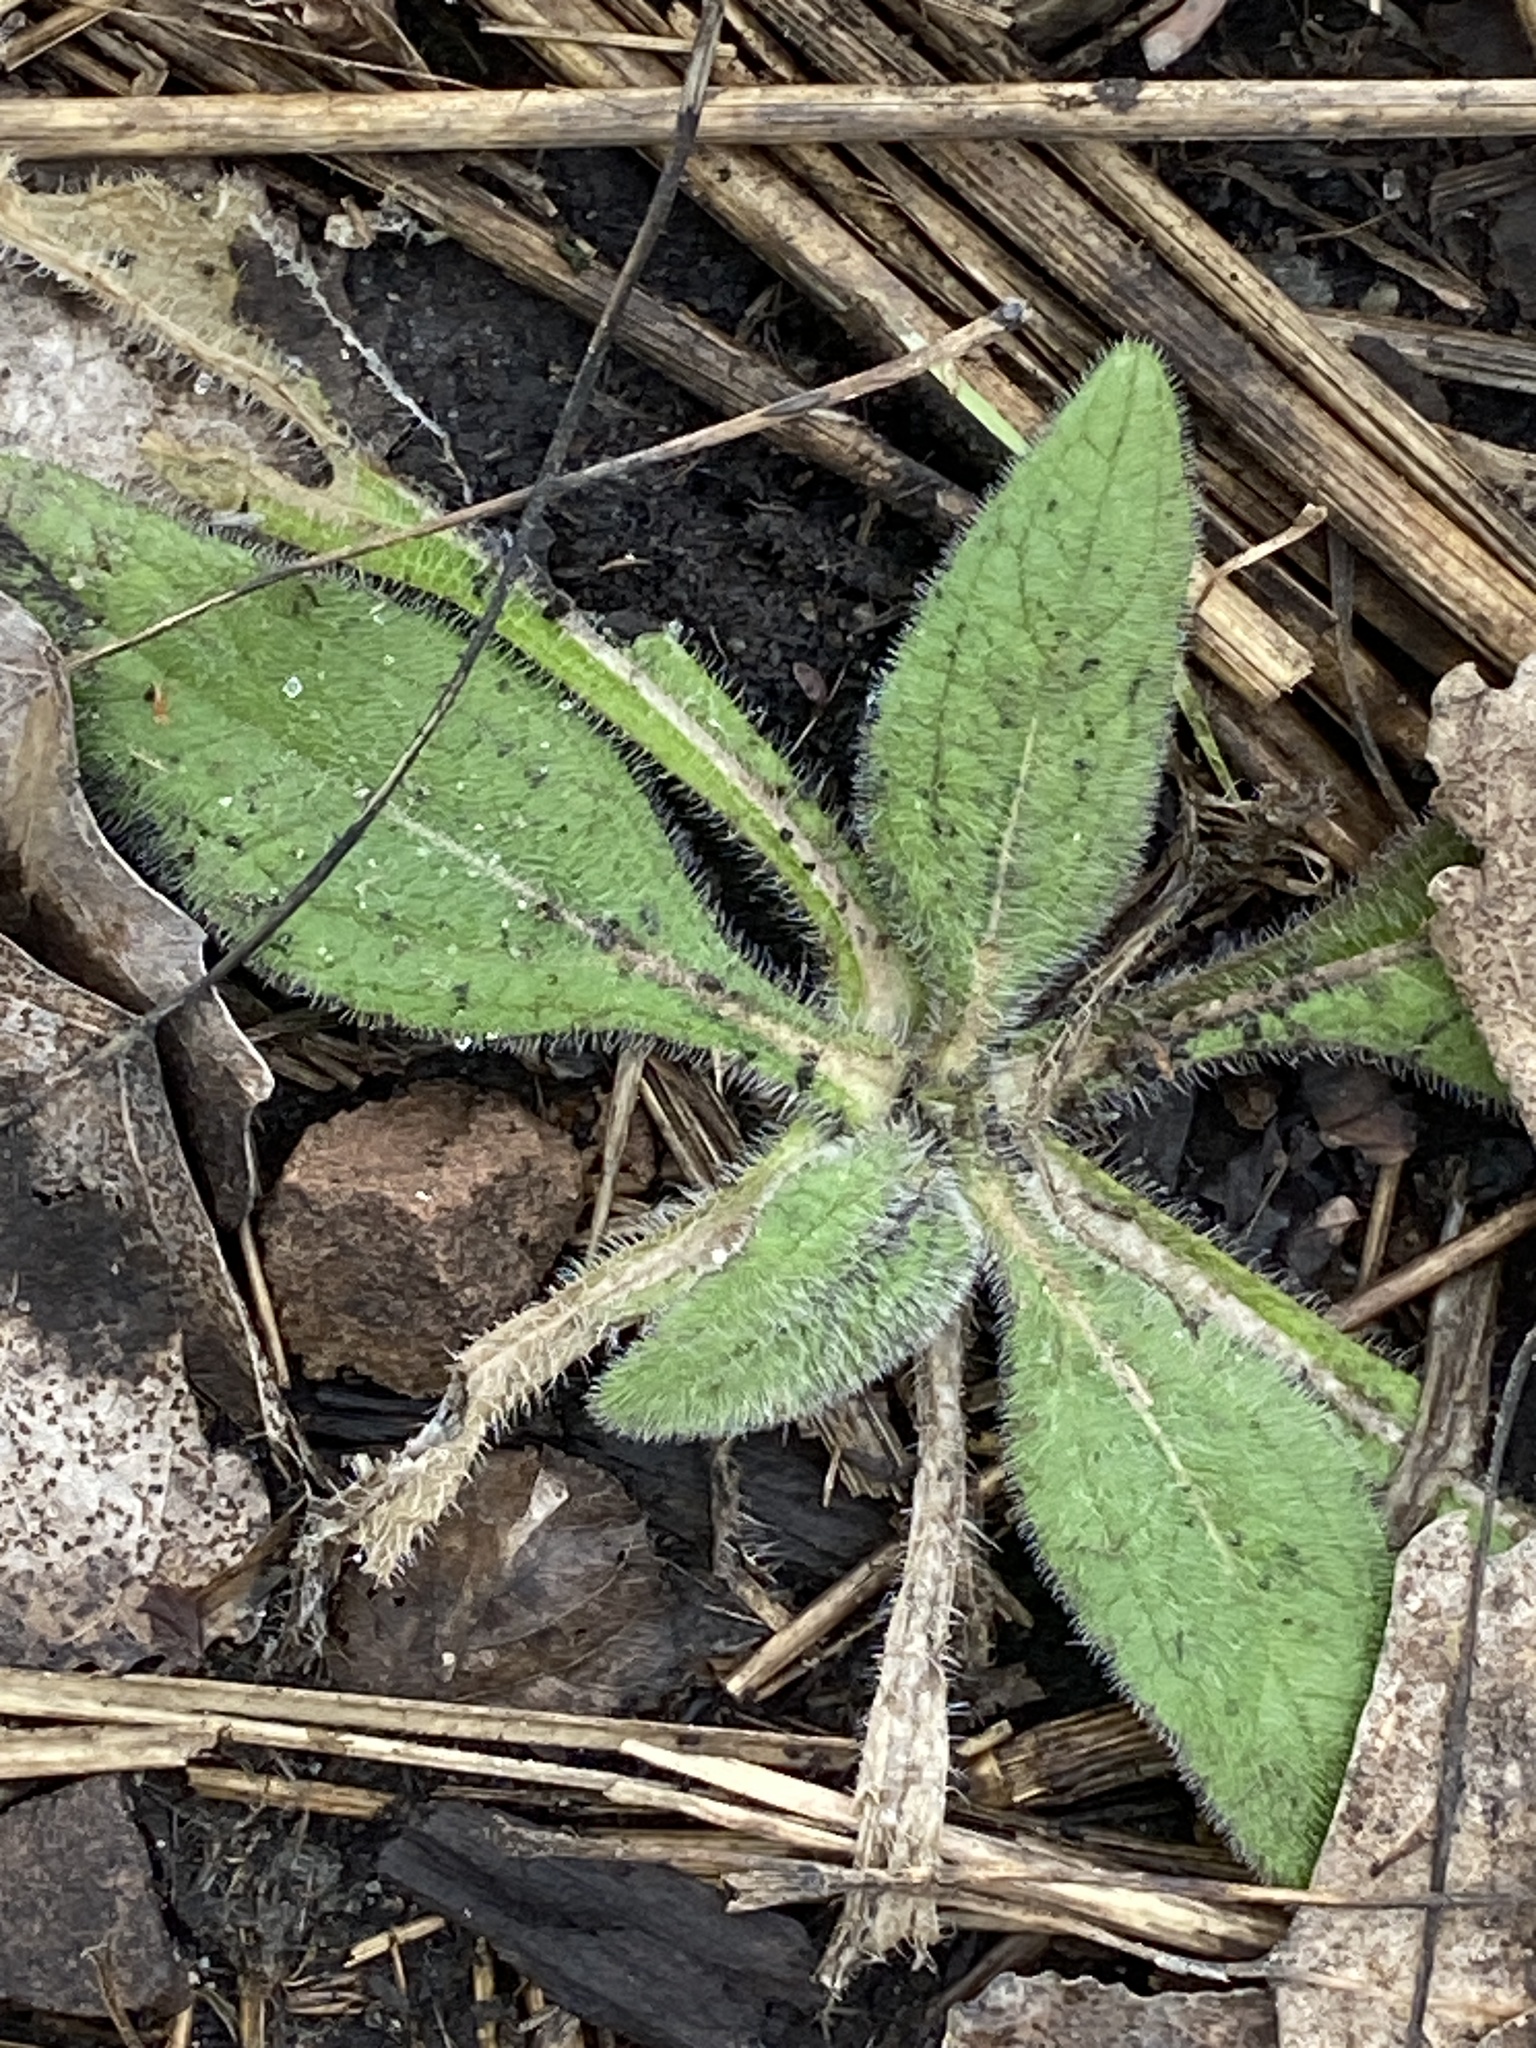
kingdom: Plantae
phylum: Tracheophyta
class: Magnoliopsida
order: Asterales
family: Asteraceae
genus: Rudbeckia
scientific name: Rudbeckia hirta
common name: Black-eyed-susan
